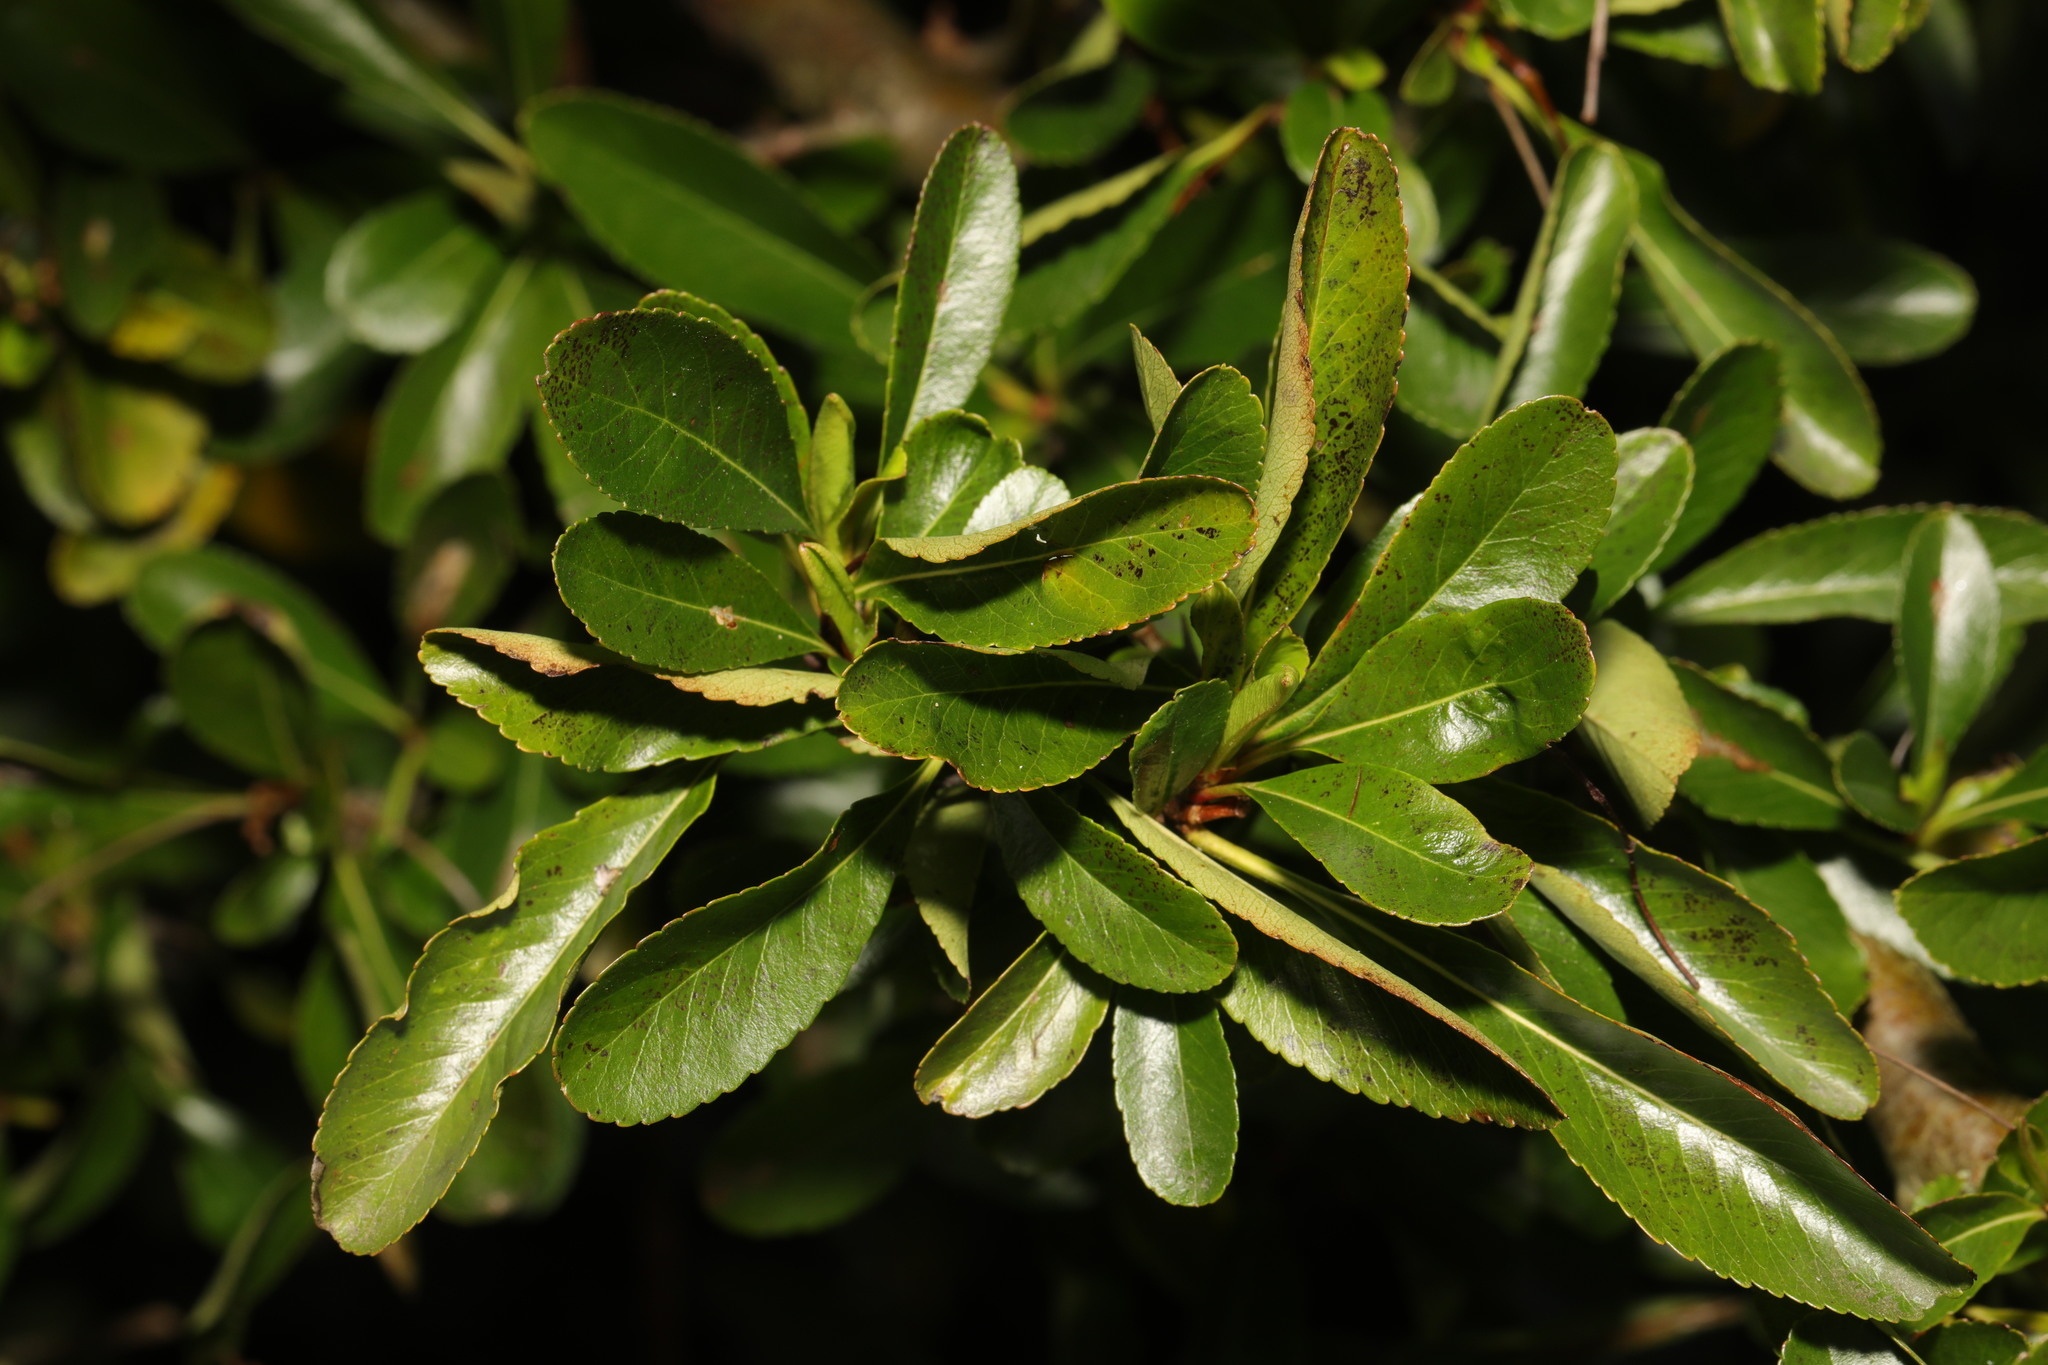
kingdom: Plantae
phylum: Tracheophyta
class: Magnoliopsida
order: Rosales
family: Rosaceae
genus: Pyracantha
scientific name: Pyracantha coccinea
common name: Firethorn
